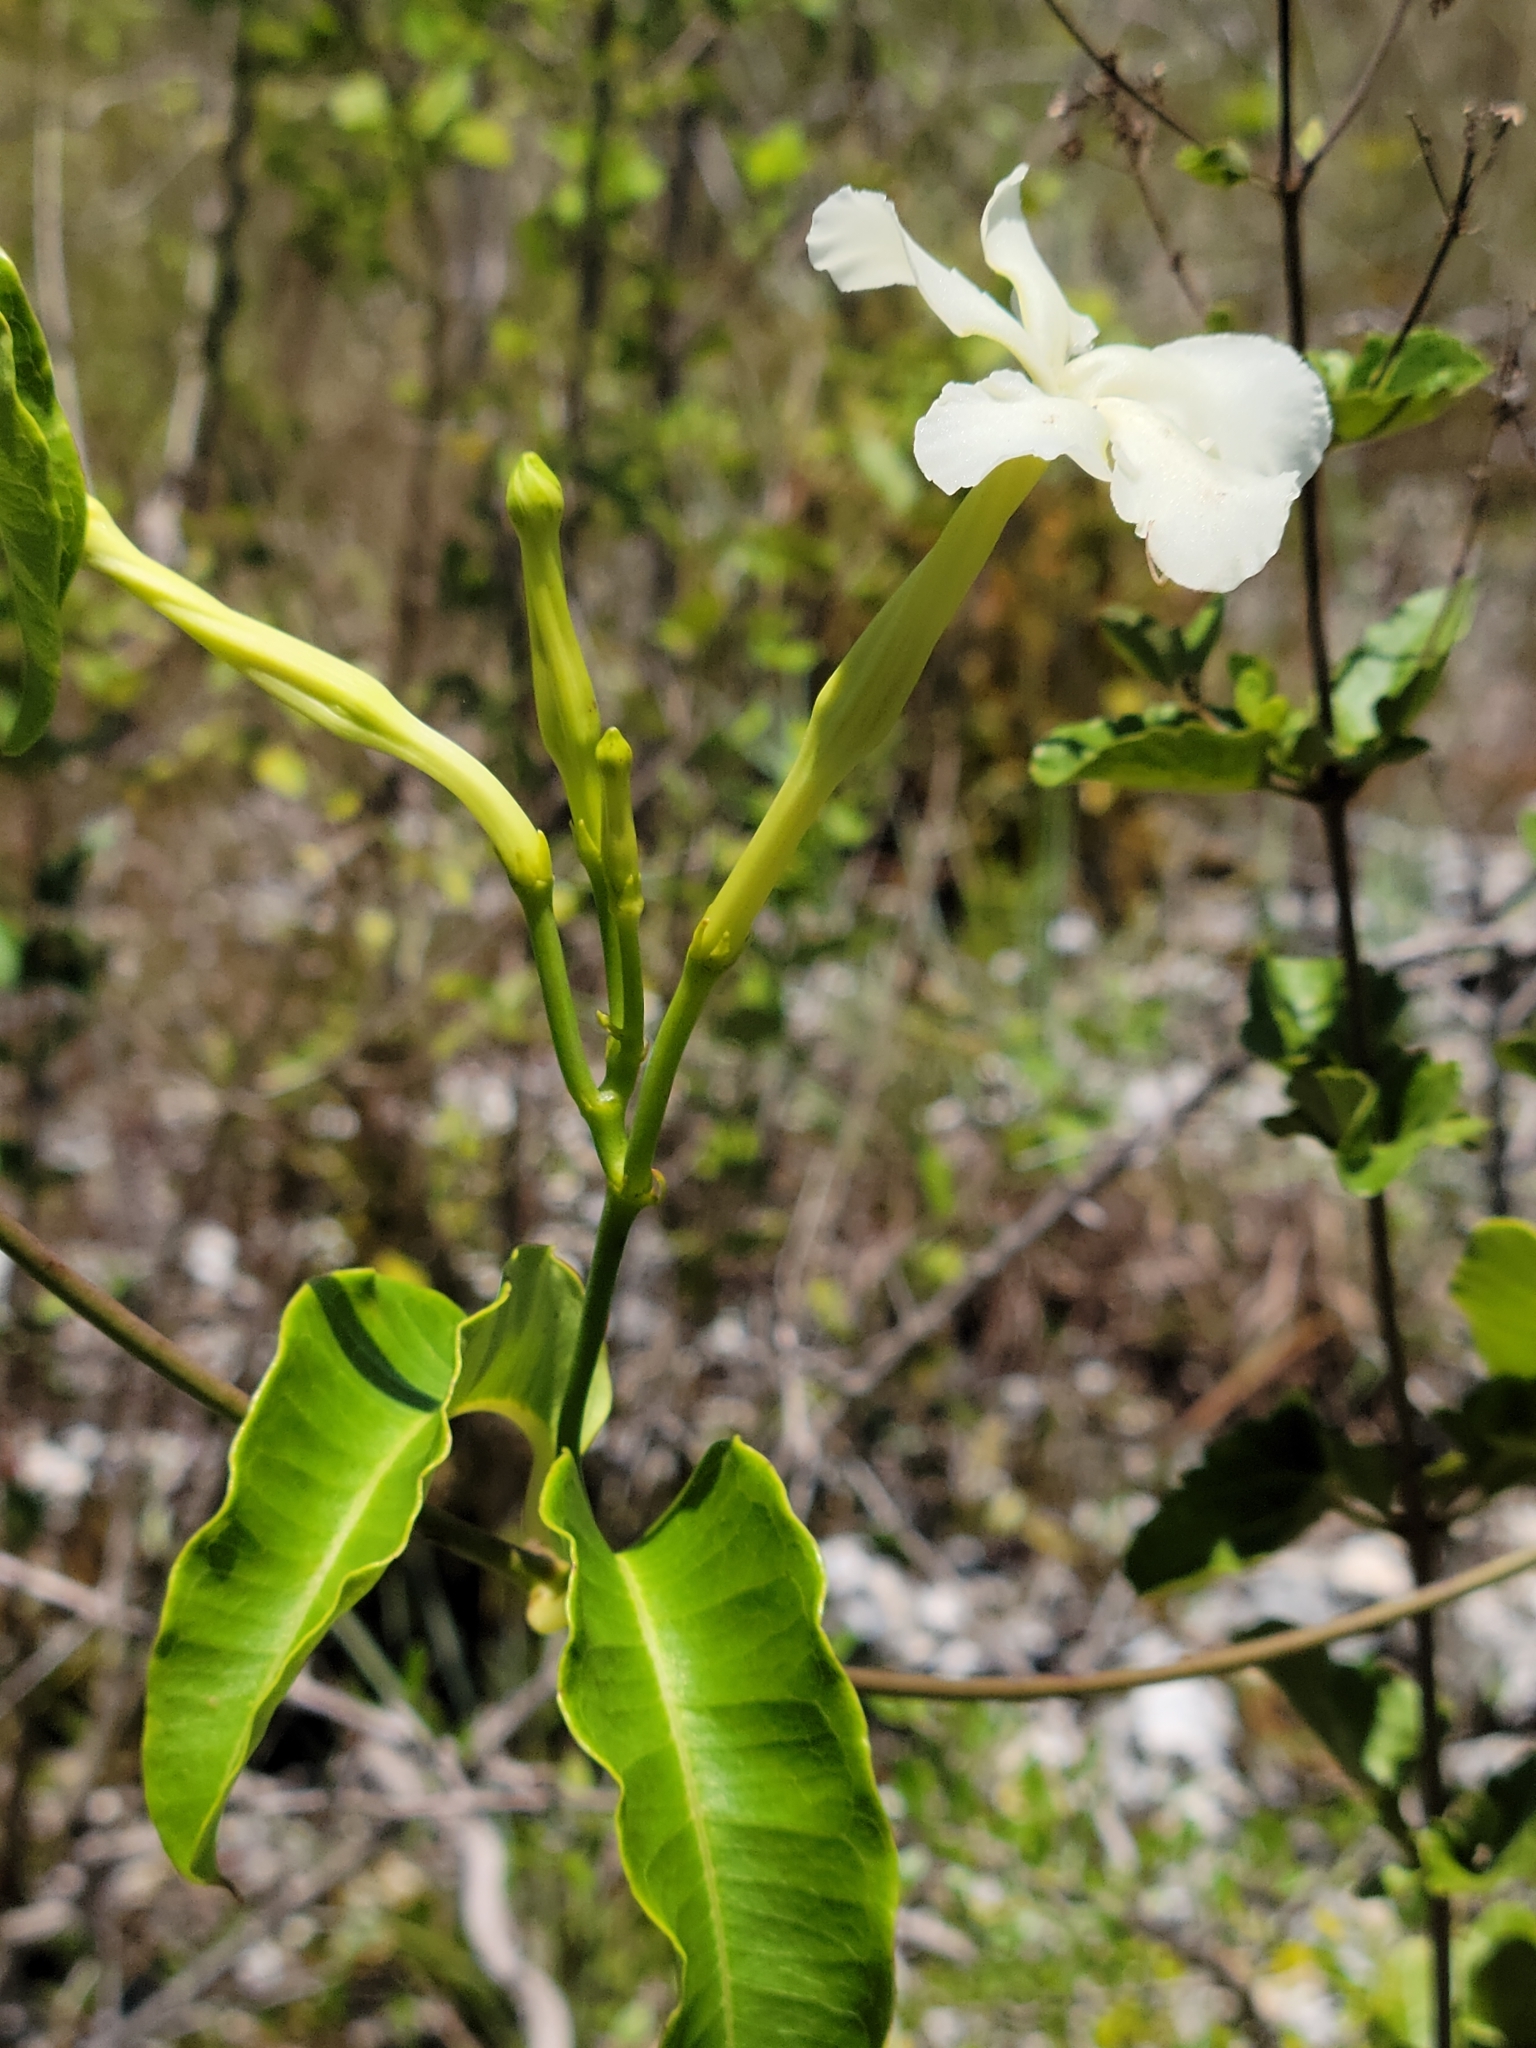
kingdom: Plantae
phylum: Tracheophyta
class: Magnoliopsida
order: Gentianales
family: Apocynaceae
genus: Echites
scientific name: Echites umbellatus
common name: Devil's potato
